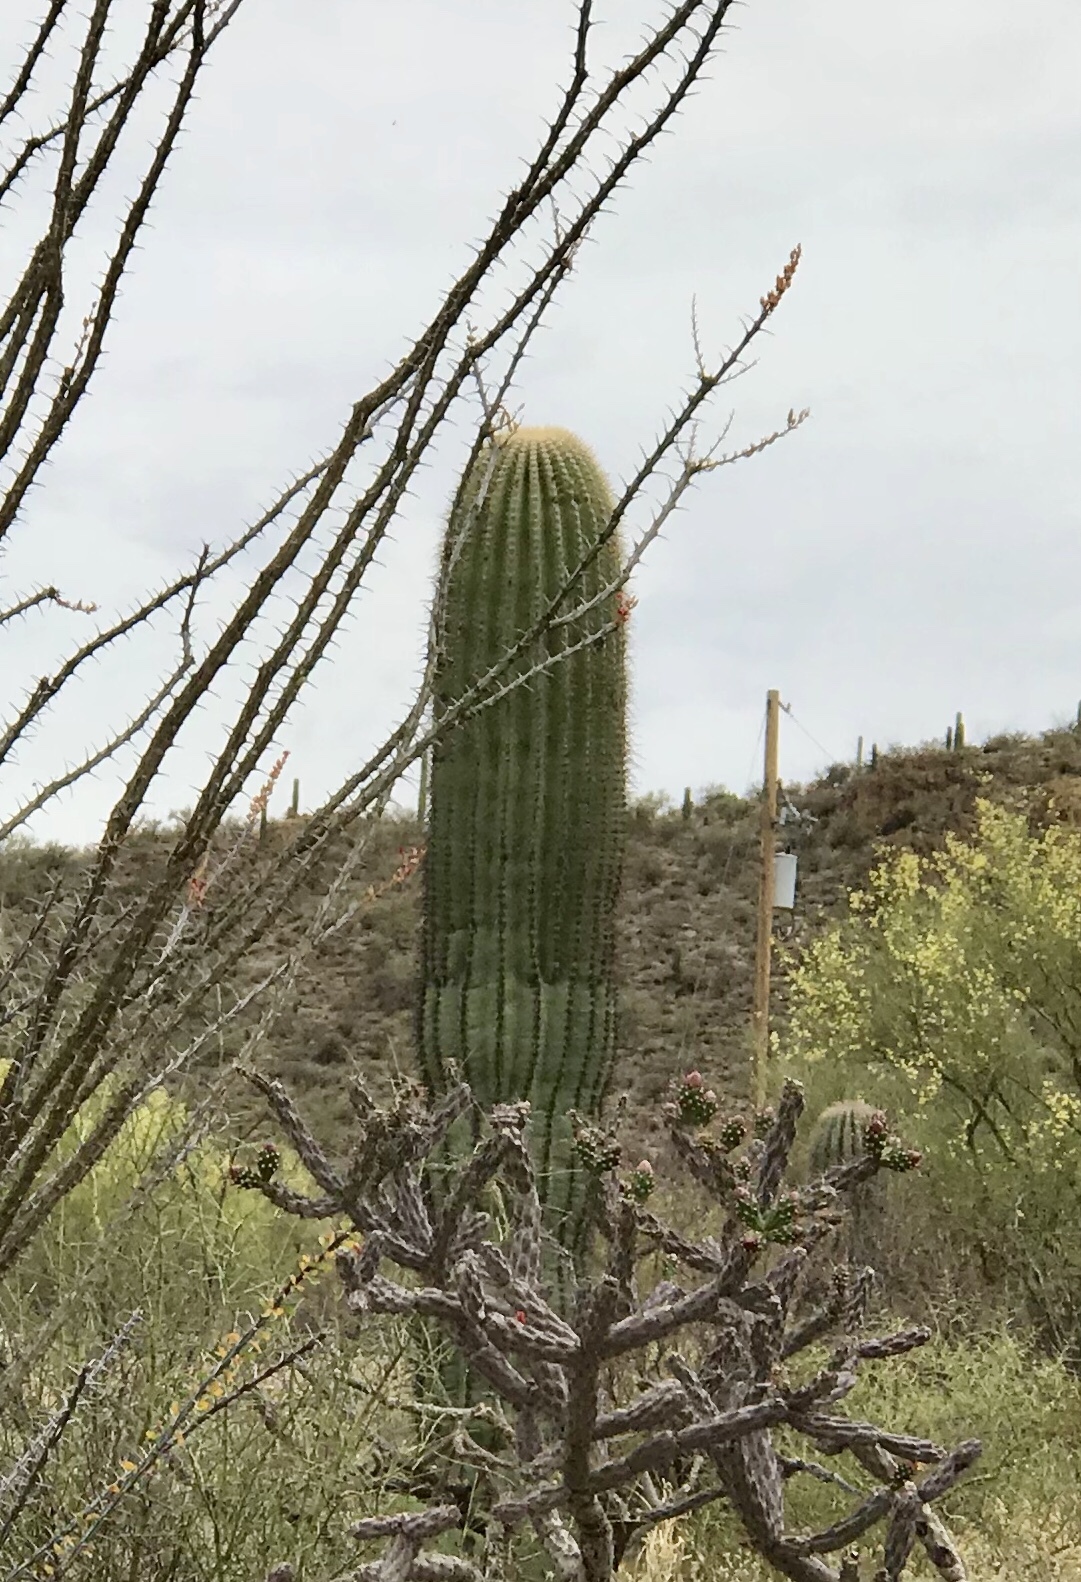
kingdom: Plantae
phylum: Tracheophyta
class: Magnoliopsida
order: Caryophyllales
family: Cactaceae
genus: Carnegiea
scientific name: Carnegiea gigantea
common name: Saguaro
